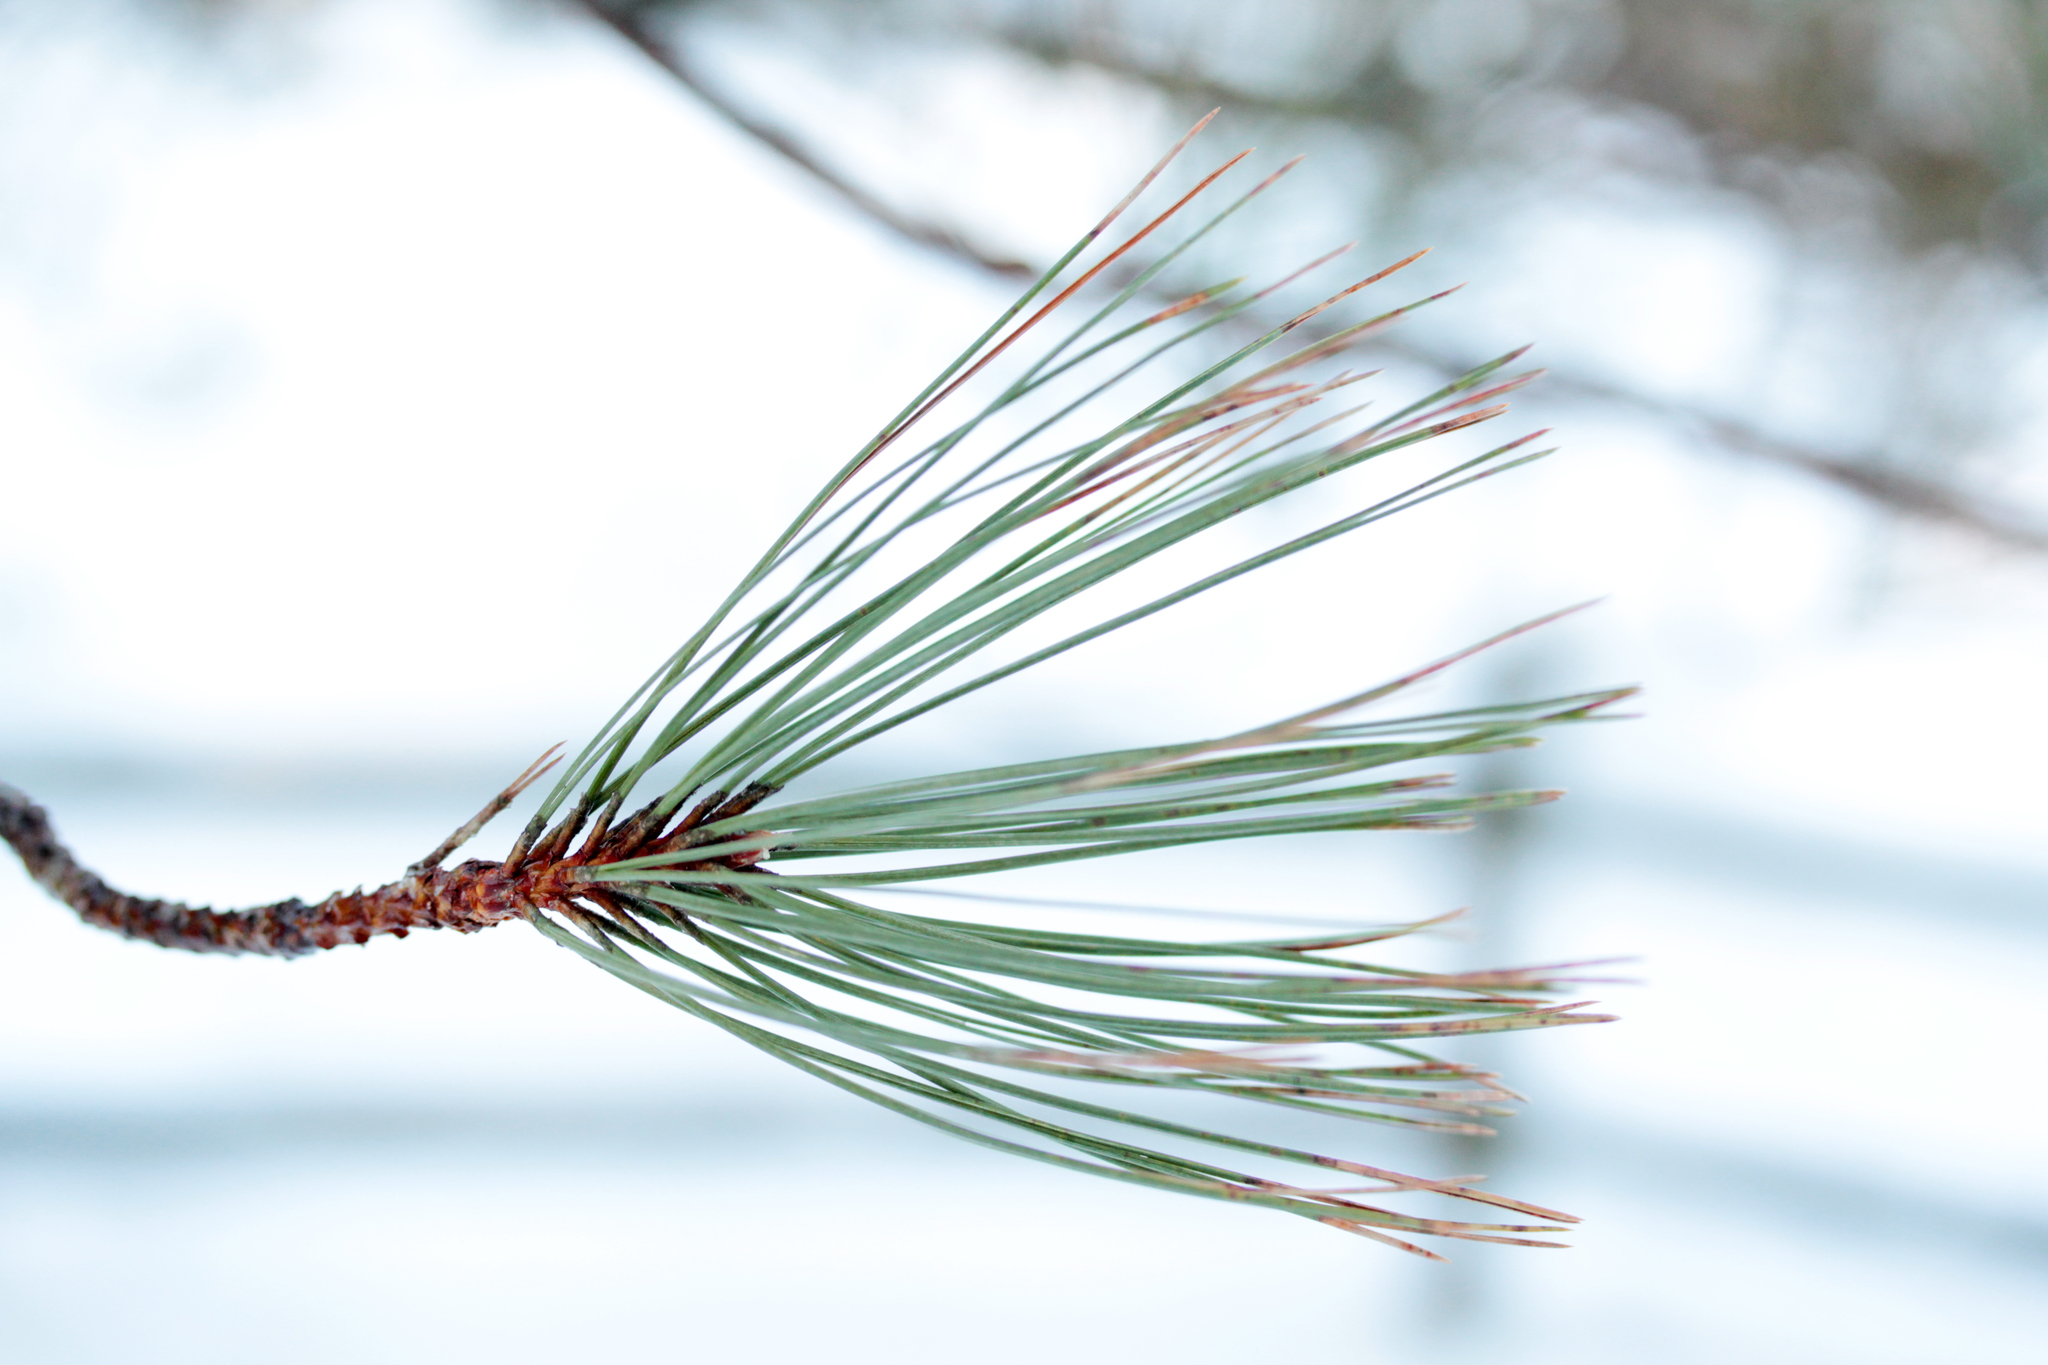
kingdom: Plantae
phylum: Tracheophyta
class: Pinopsida
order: Pinales
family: Pinaceae
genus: Pinus
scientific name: Pinus resinosa
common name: Norway pine
